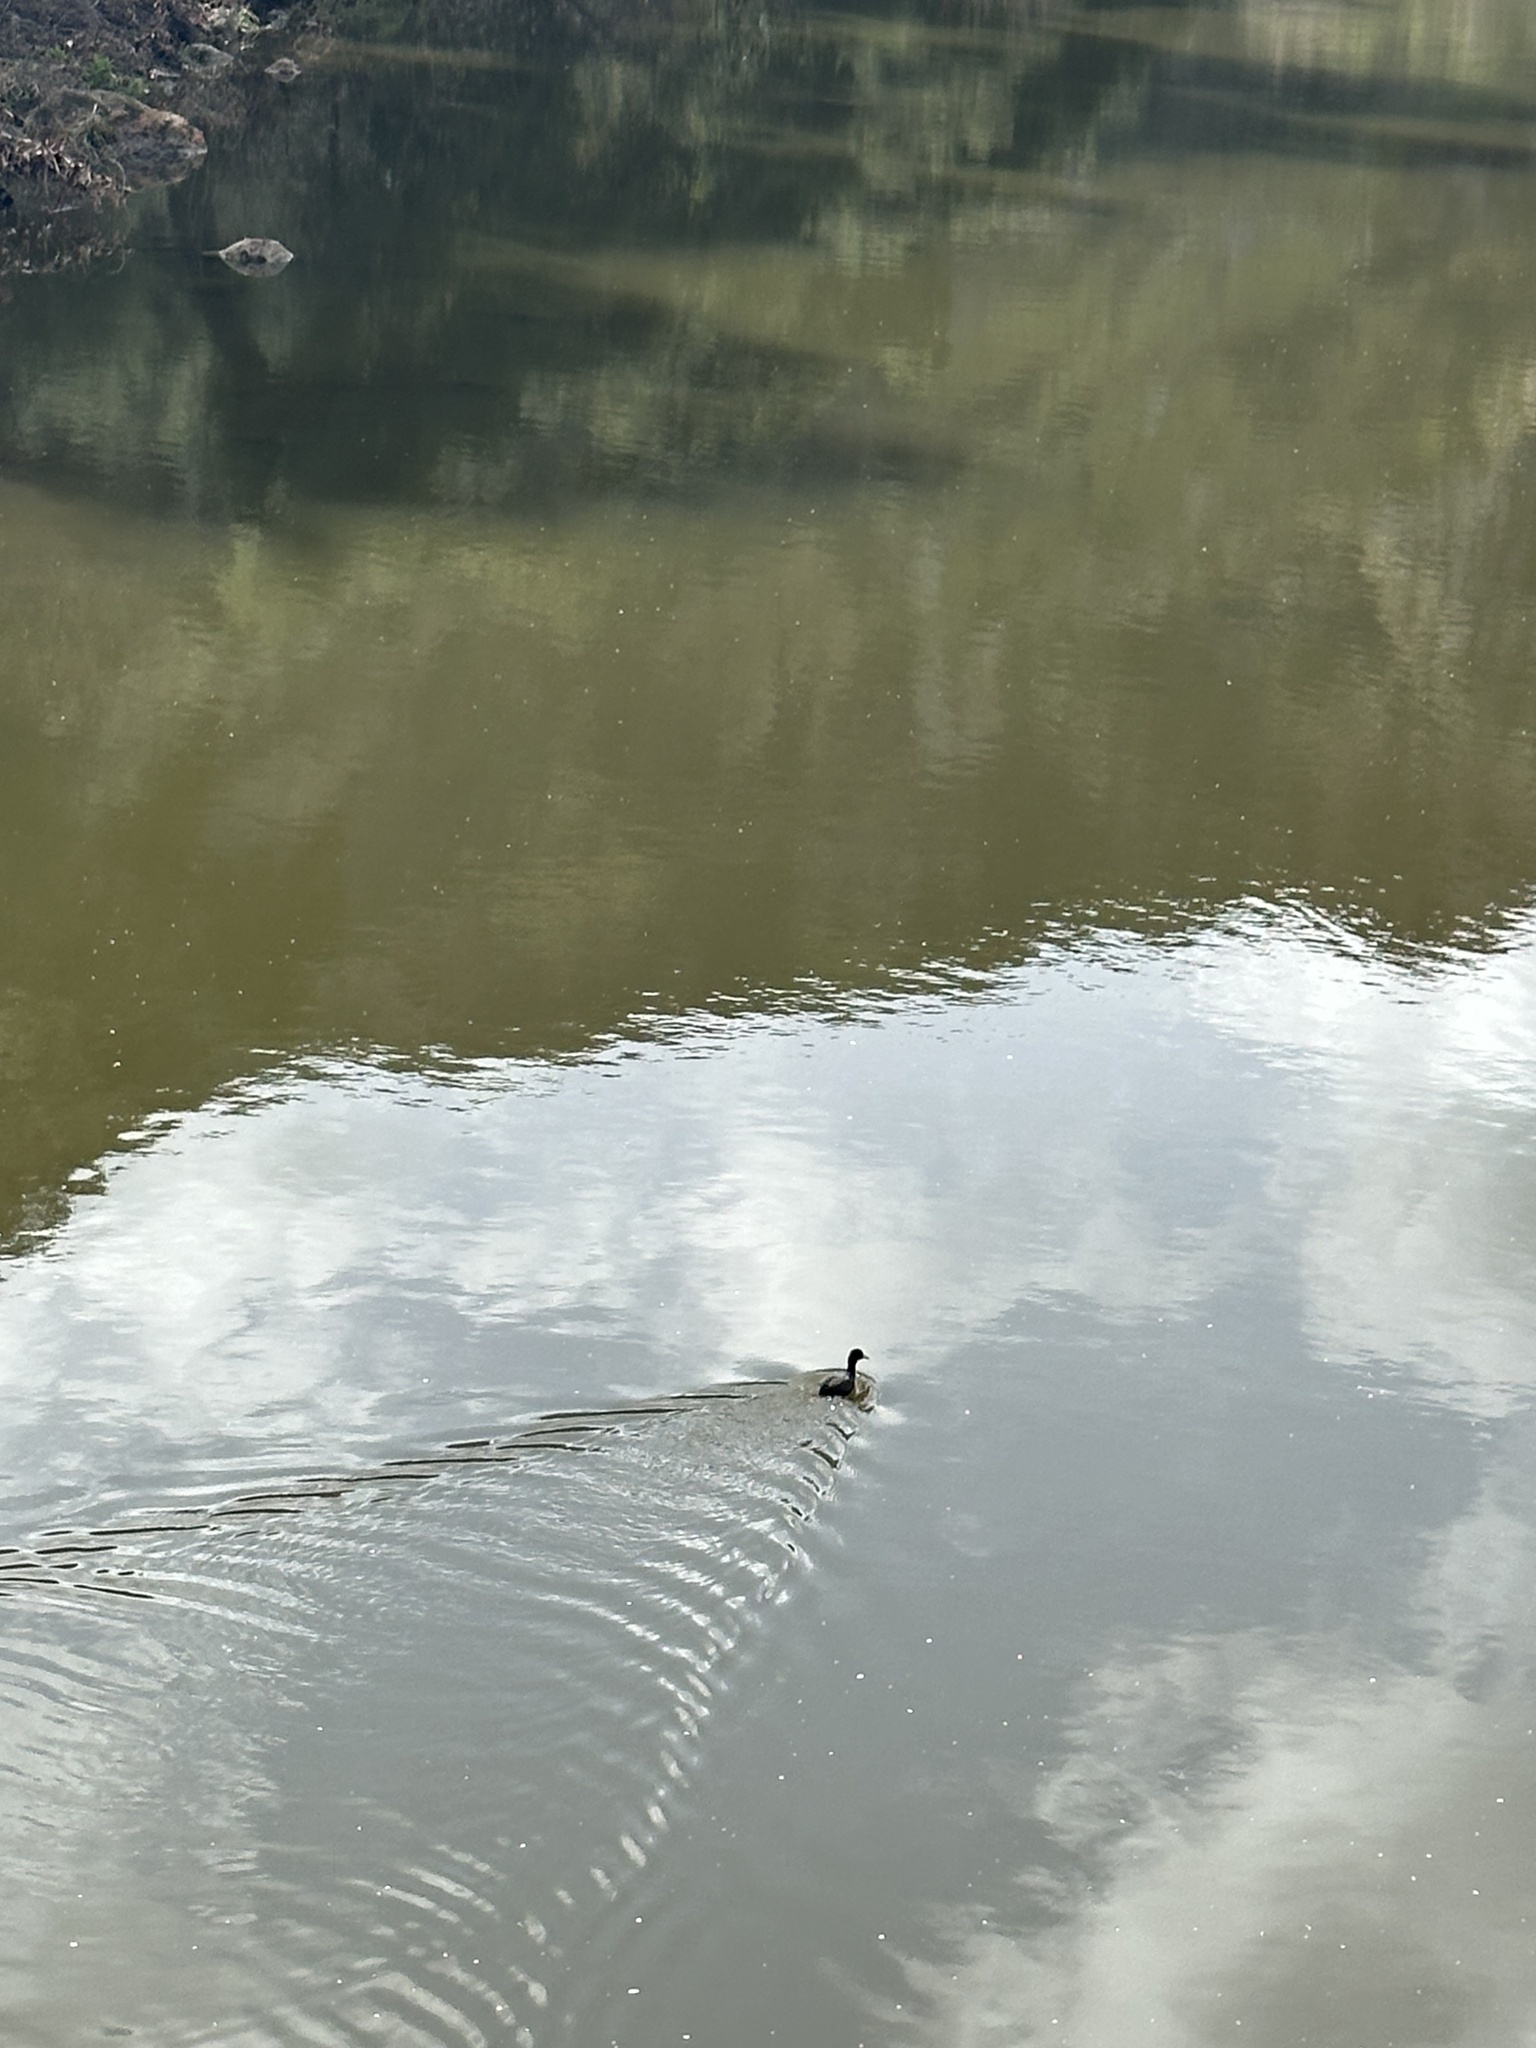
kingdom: Animalia
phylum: Chordata
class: Aves
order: Gruiformes
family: Rallidae
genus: Fulica
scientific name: Fulica americana
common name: American coot
